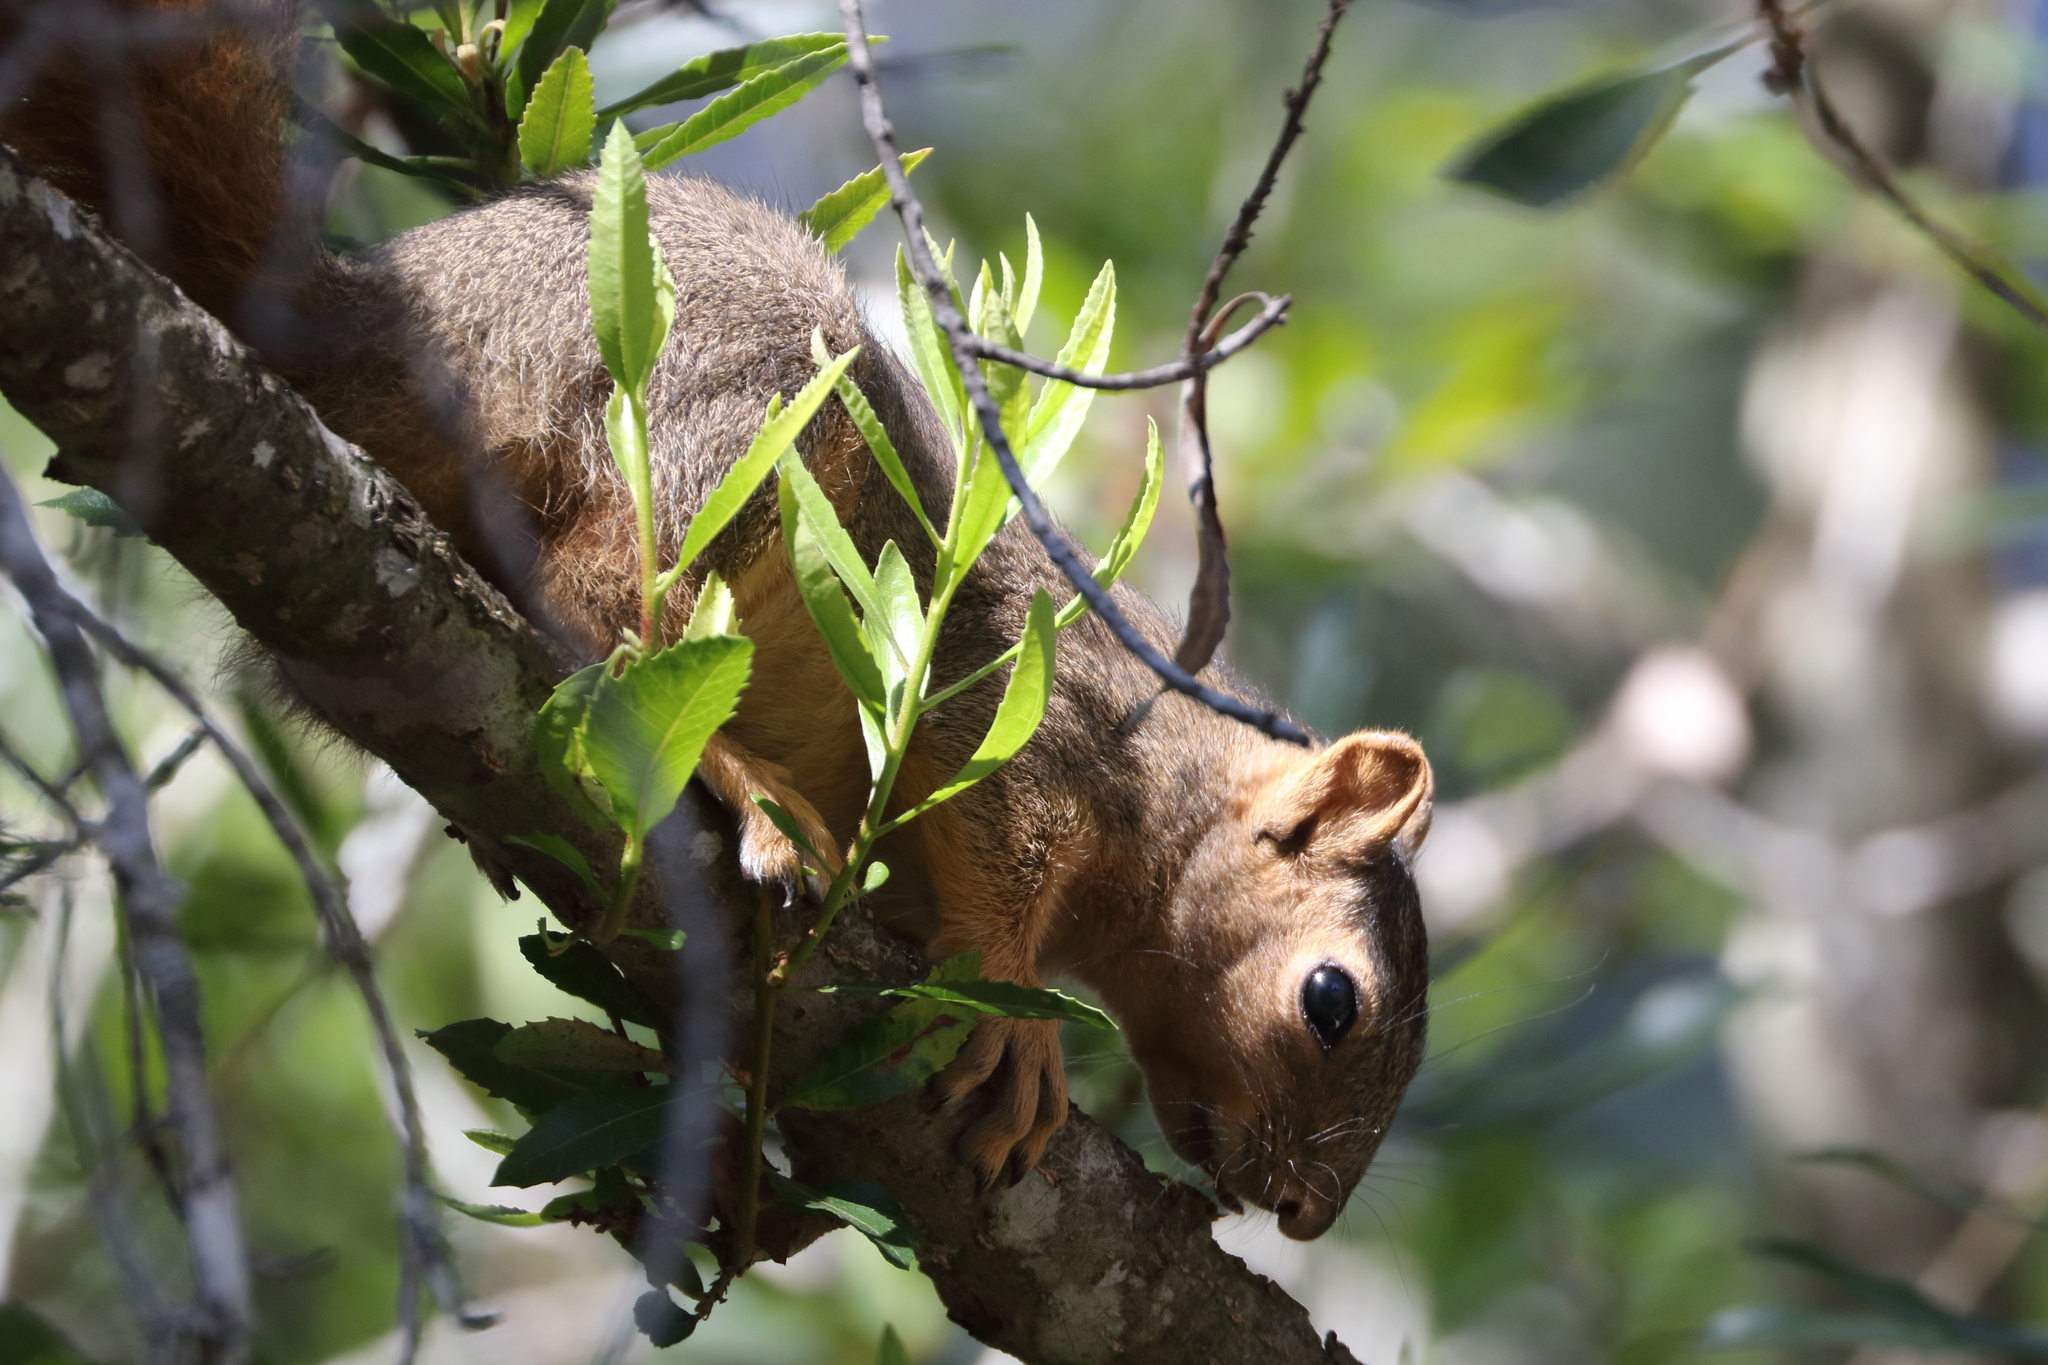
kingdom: Animalia
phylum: Chordata
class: Mammalia
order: Rodentia
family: Sciuridae
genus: Sciurus
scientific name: Sciurus niger
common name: Fox squirrel
